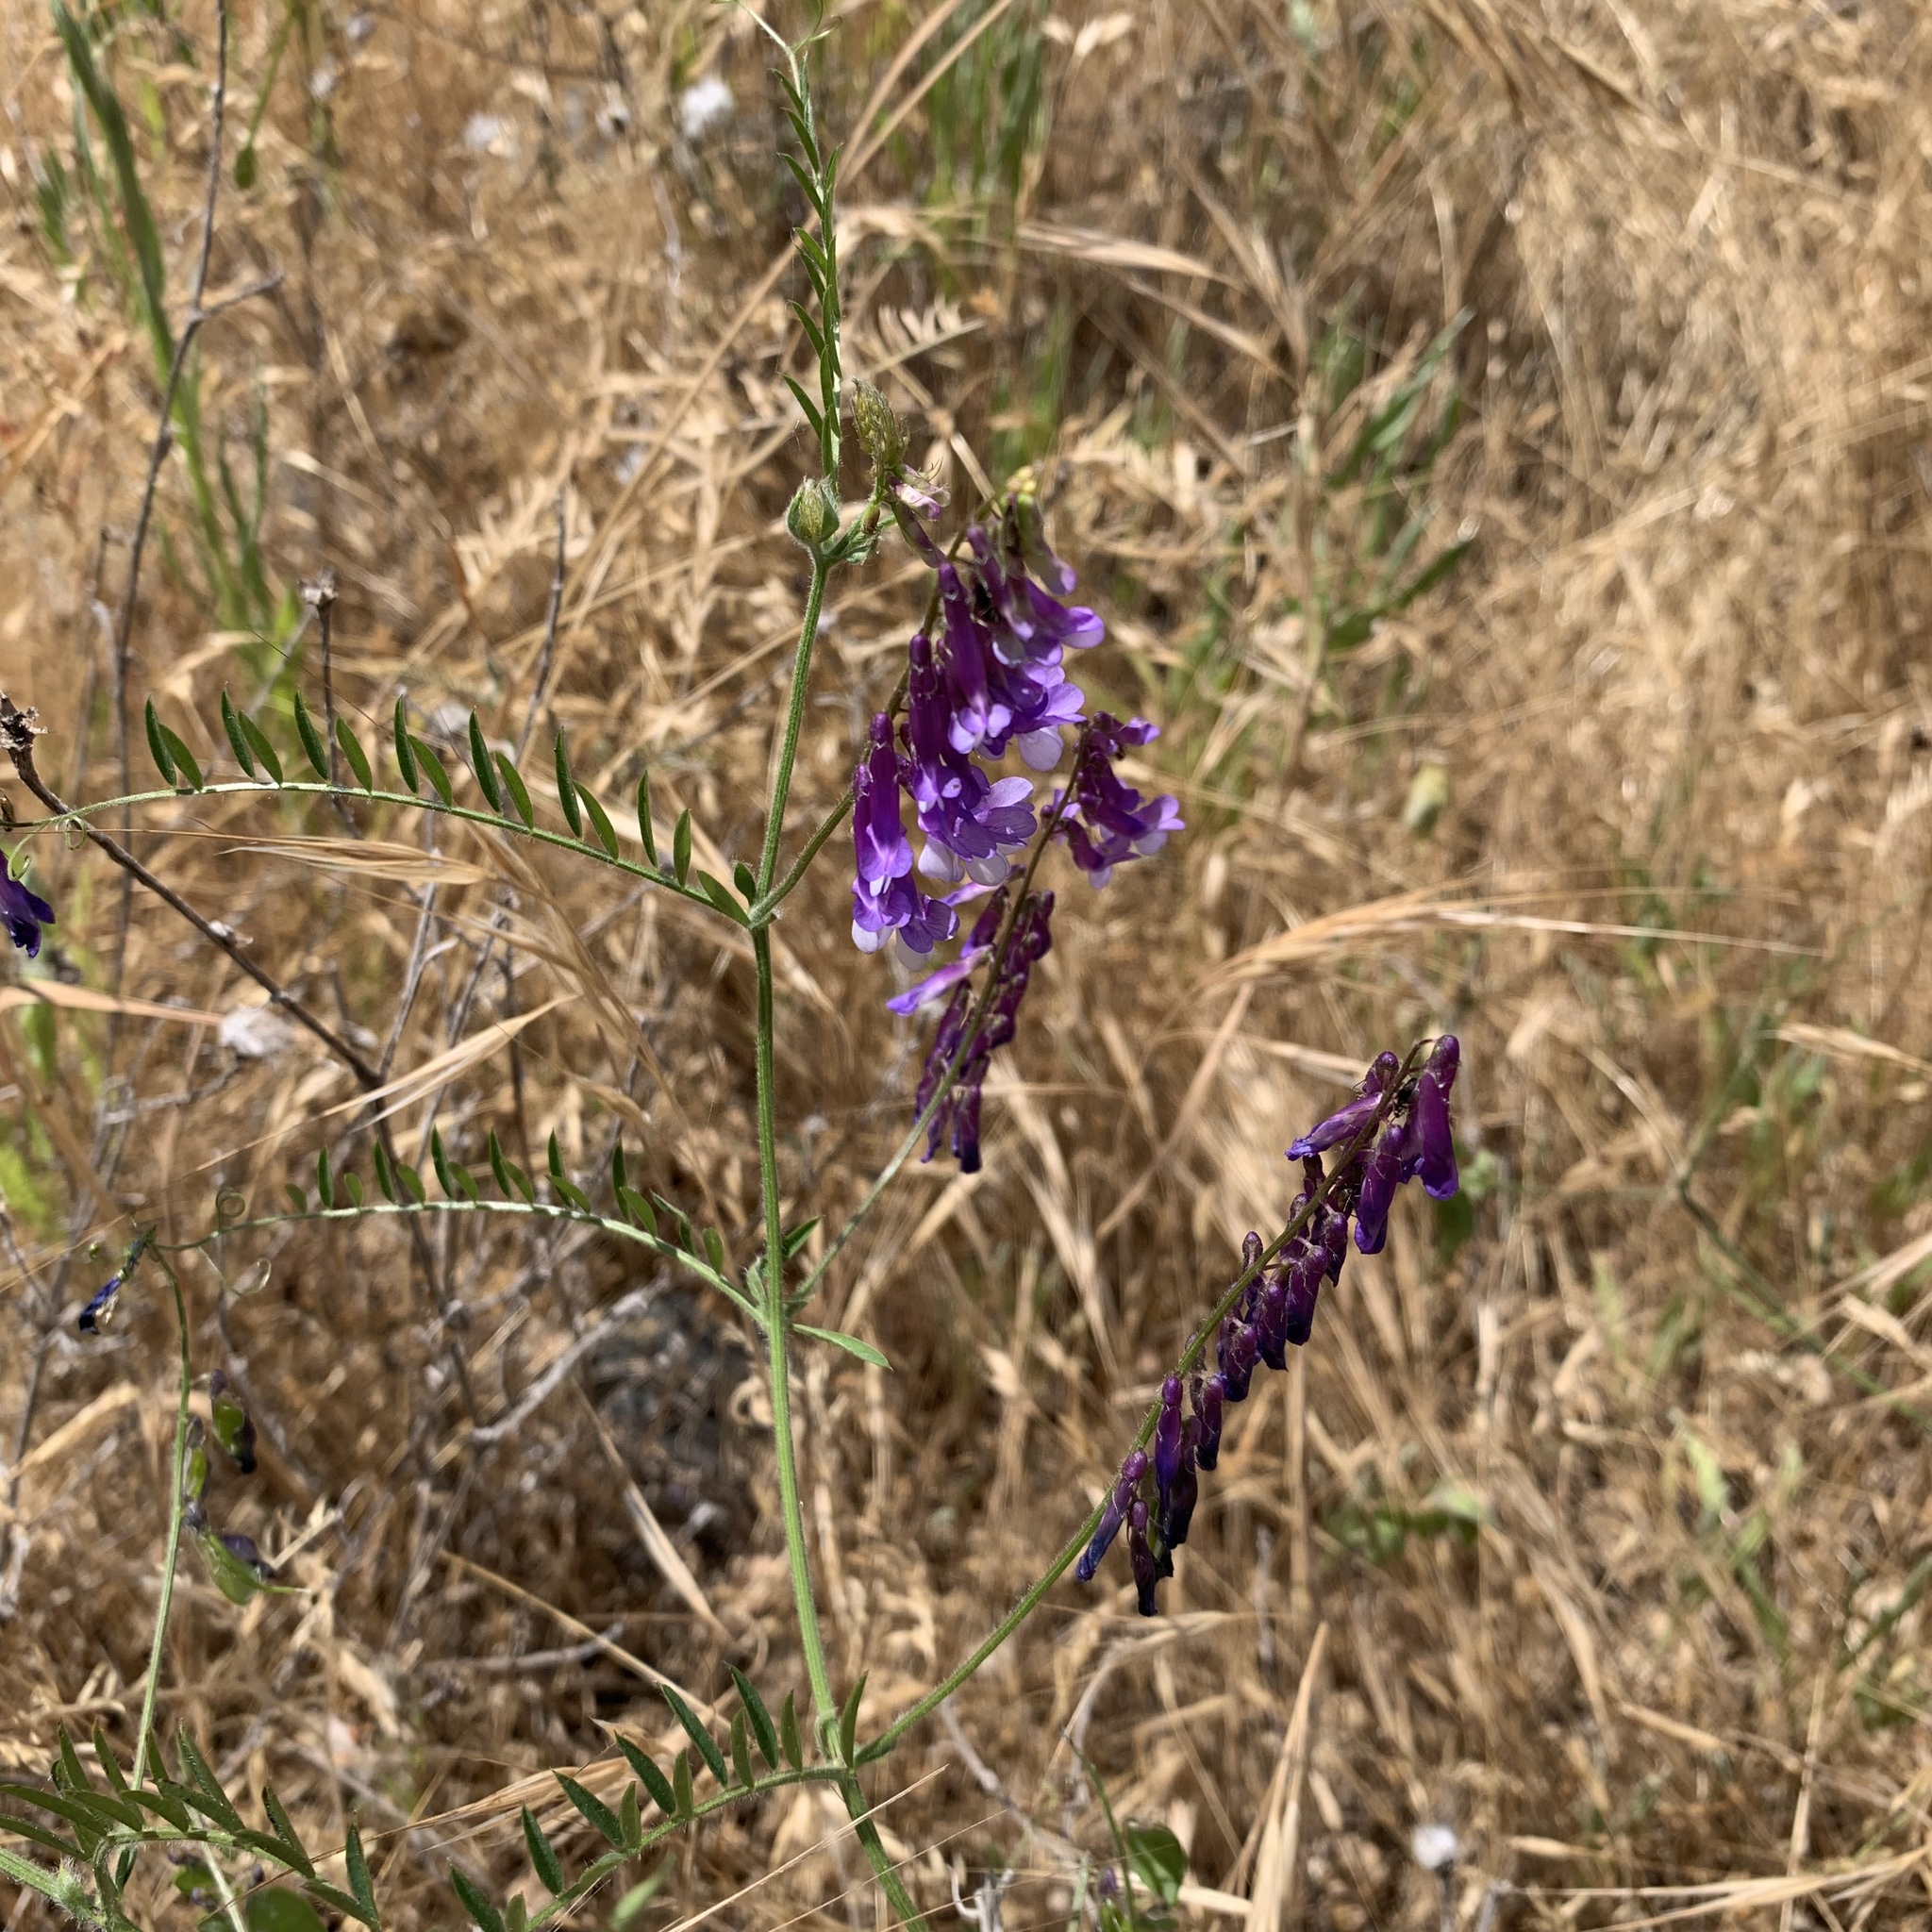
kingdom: Plantae
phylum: Tracheophyta
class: Magnoliopsida
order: Fabales
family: Fabaceae
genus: Vicia
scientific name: Vicia villosa
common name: Fodder vetch
